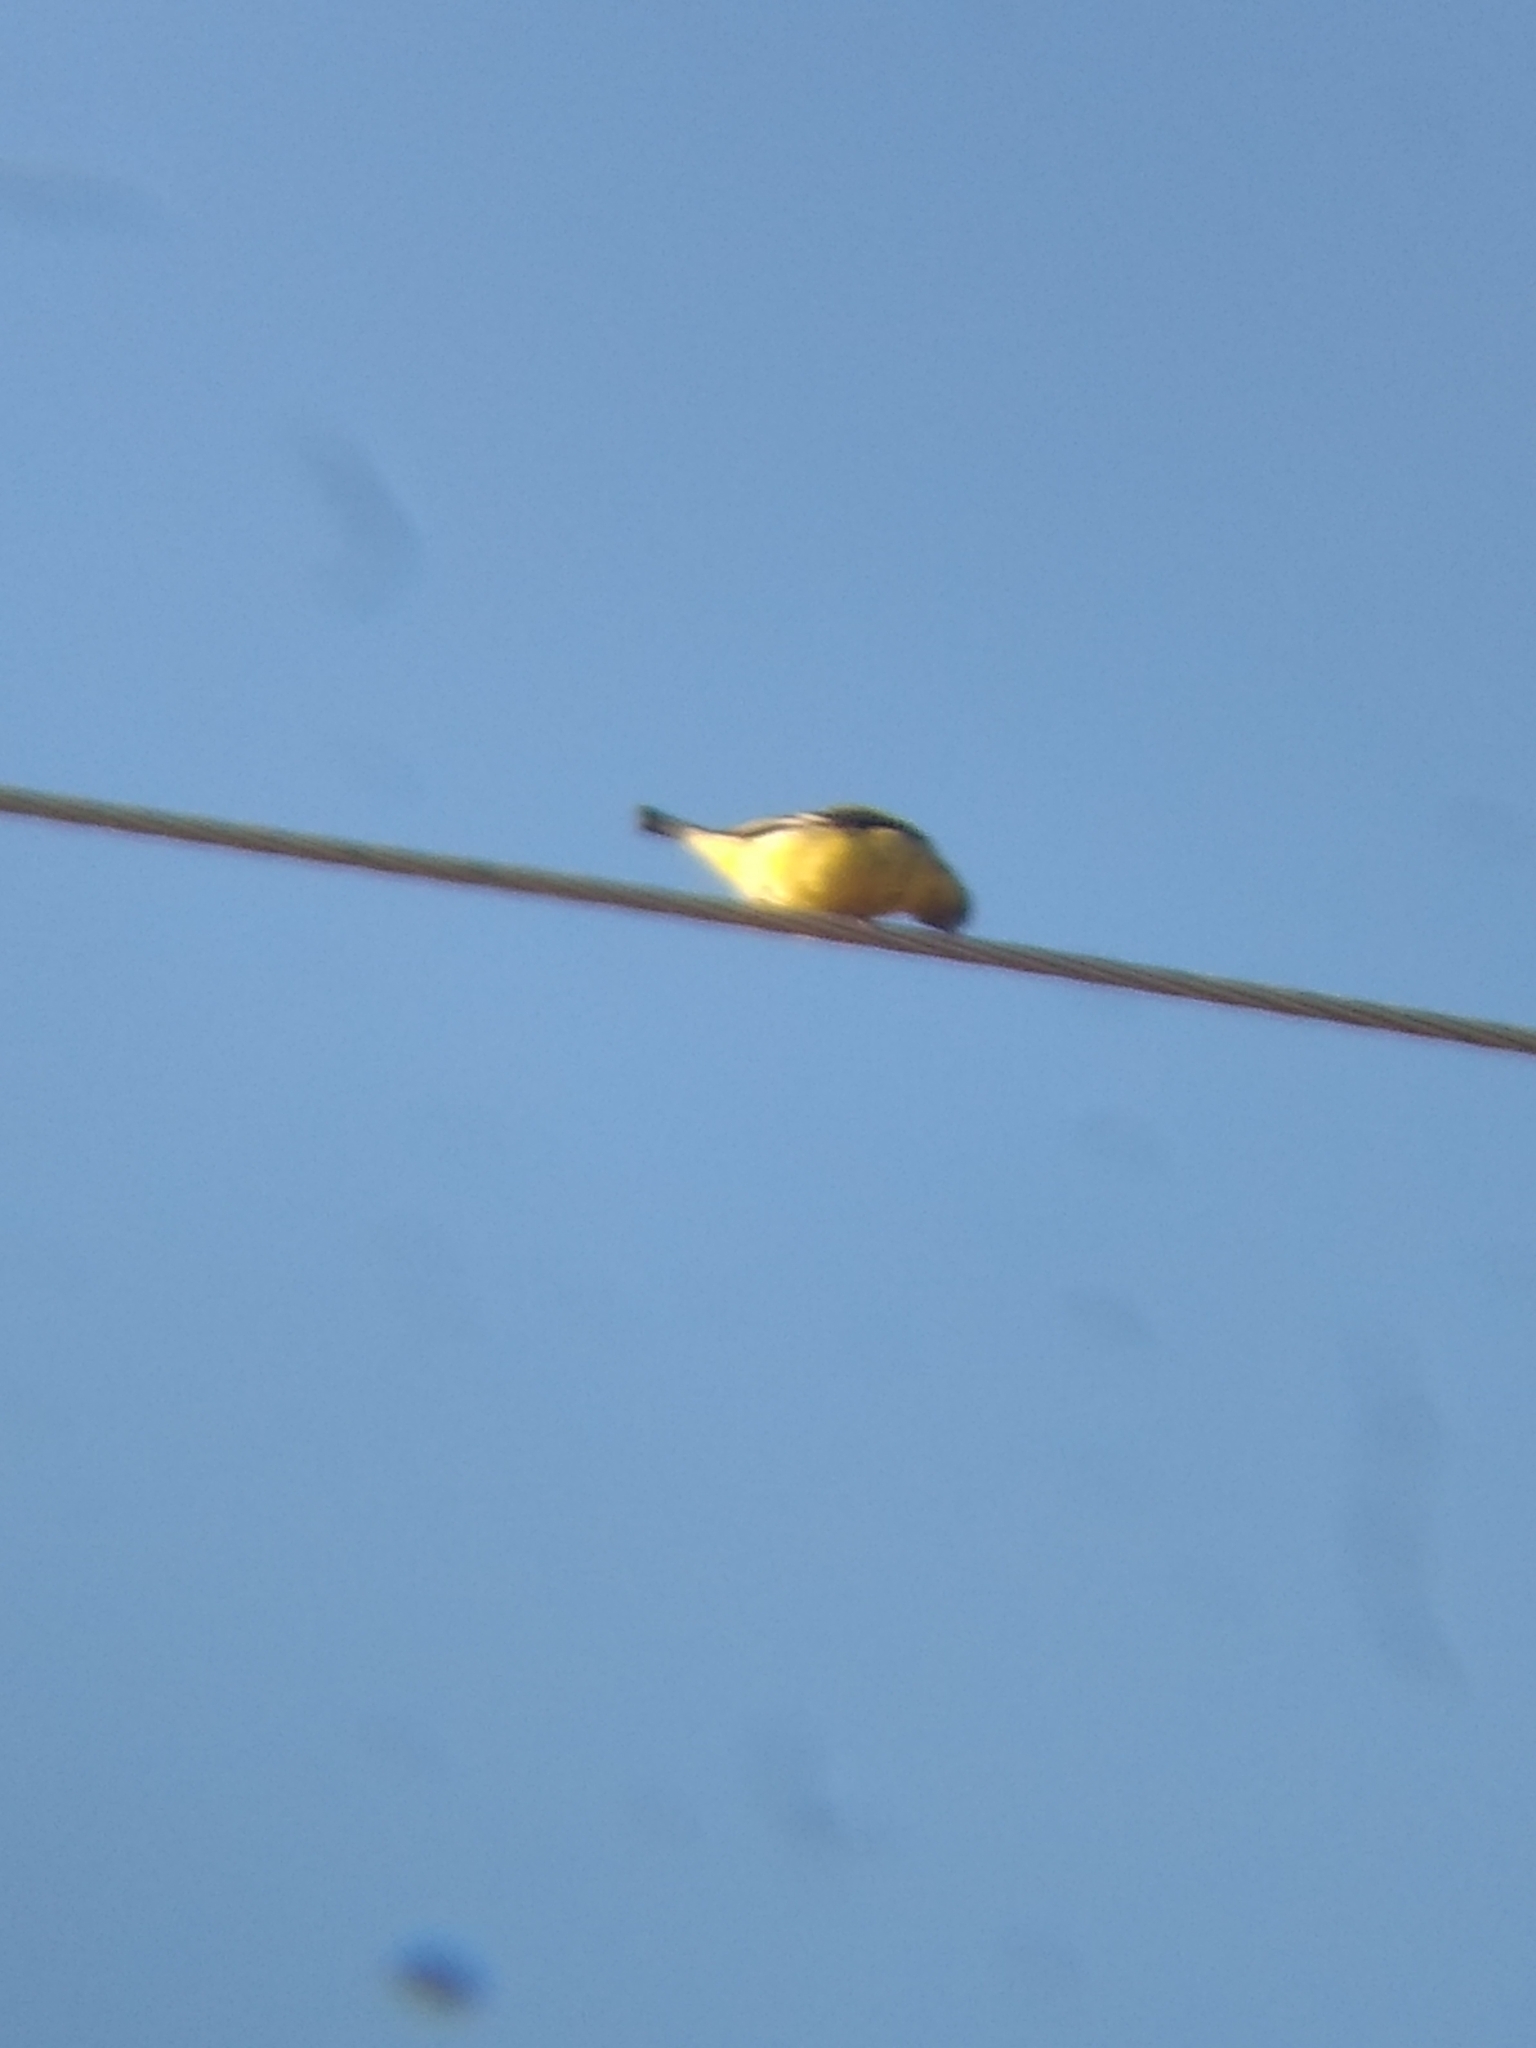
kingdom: Animalia
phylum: Chordata
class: Aves
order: Passeriformes
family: Fringillidae
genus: Spinus
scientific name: Spinus psaltria
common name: Lesser goldfinch
